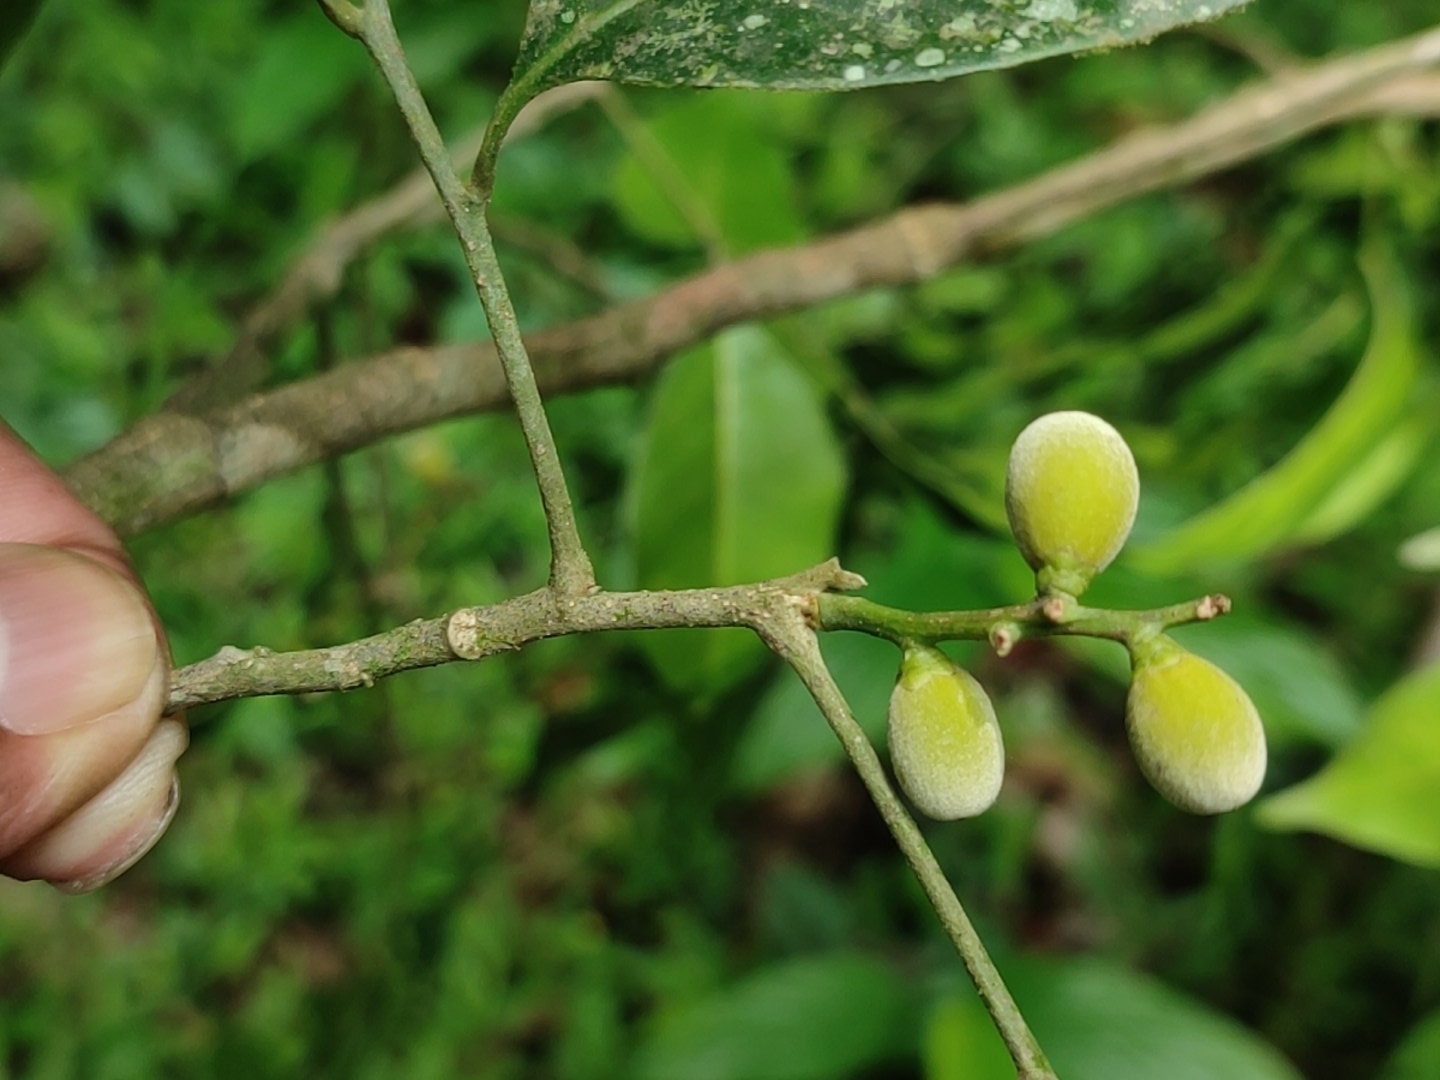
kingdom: Plantae
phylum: Tracheophyta
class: Magnoliopsida
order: Sapindales
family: Meliaceae
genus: Reinwardtiodendron
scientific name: Reinwardtiodendron anamalaiense
